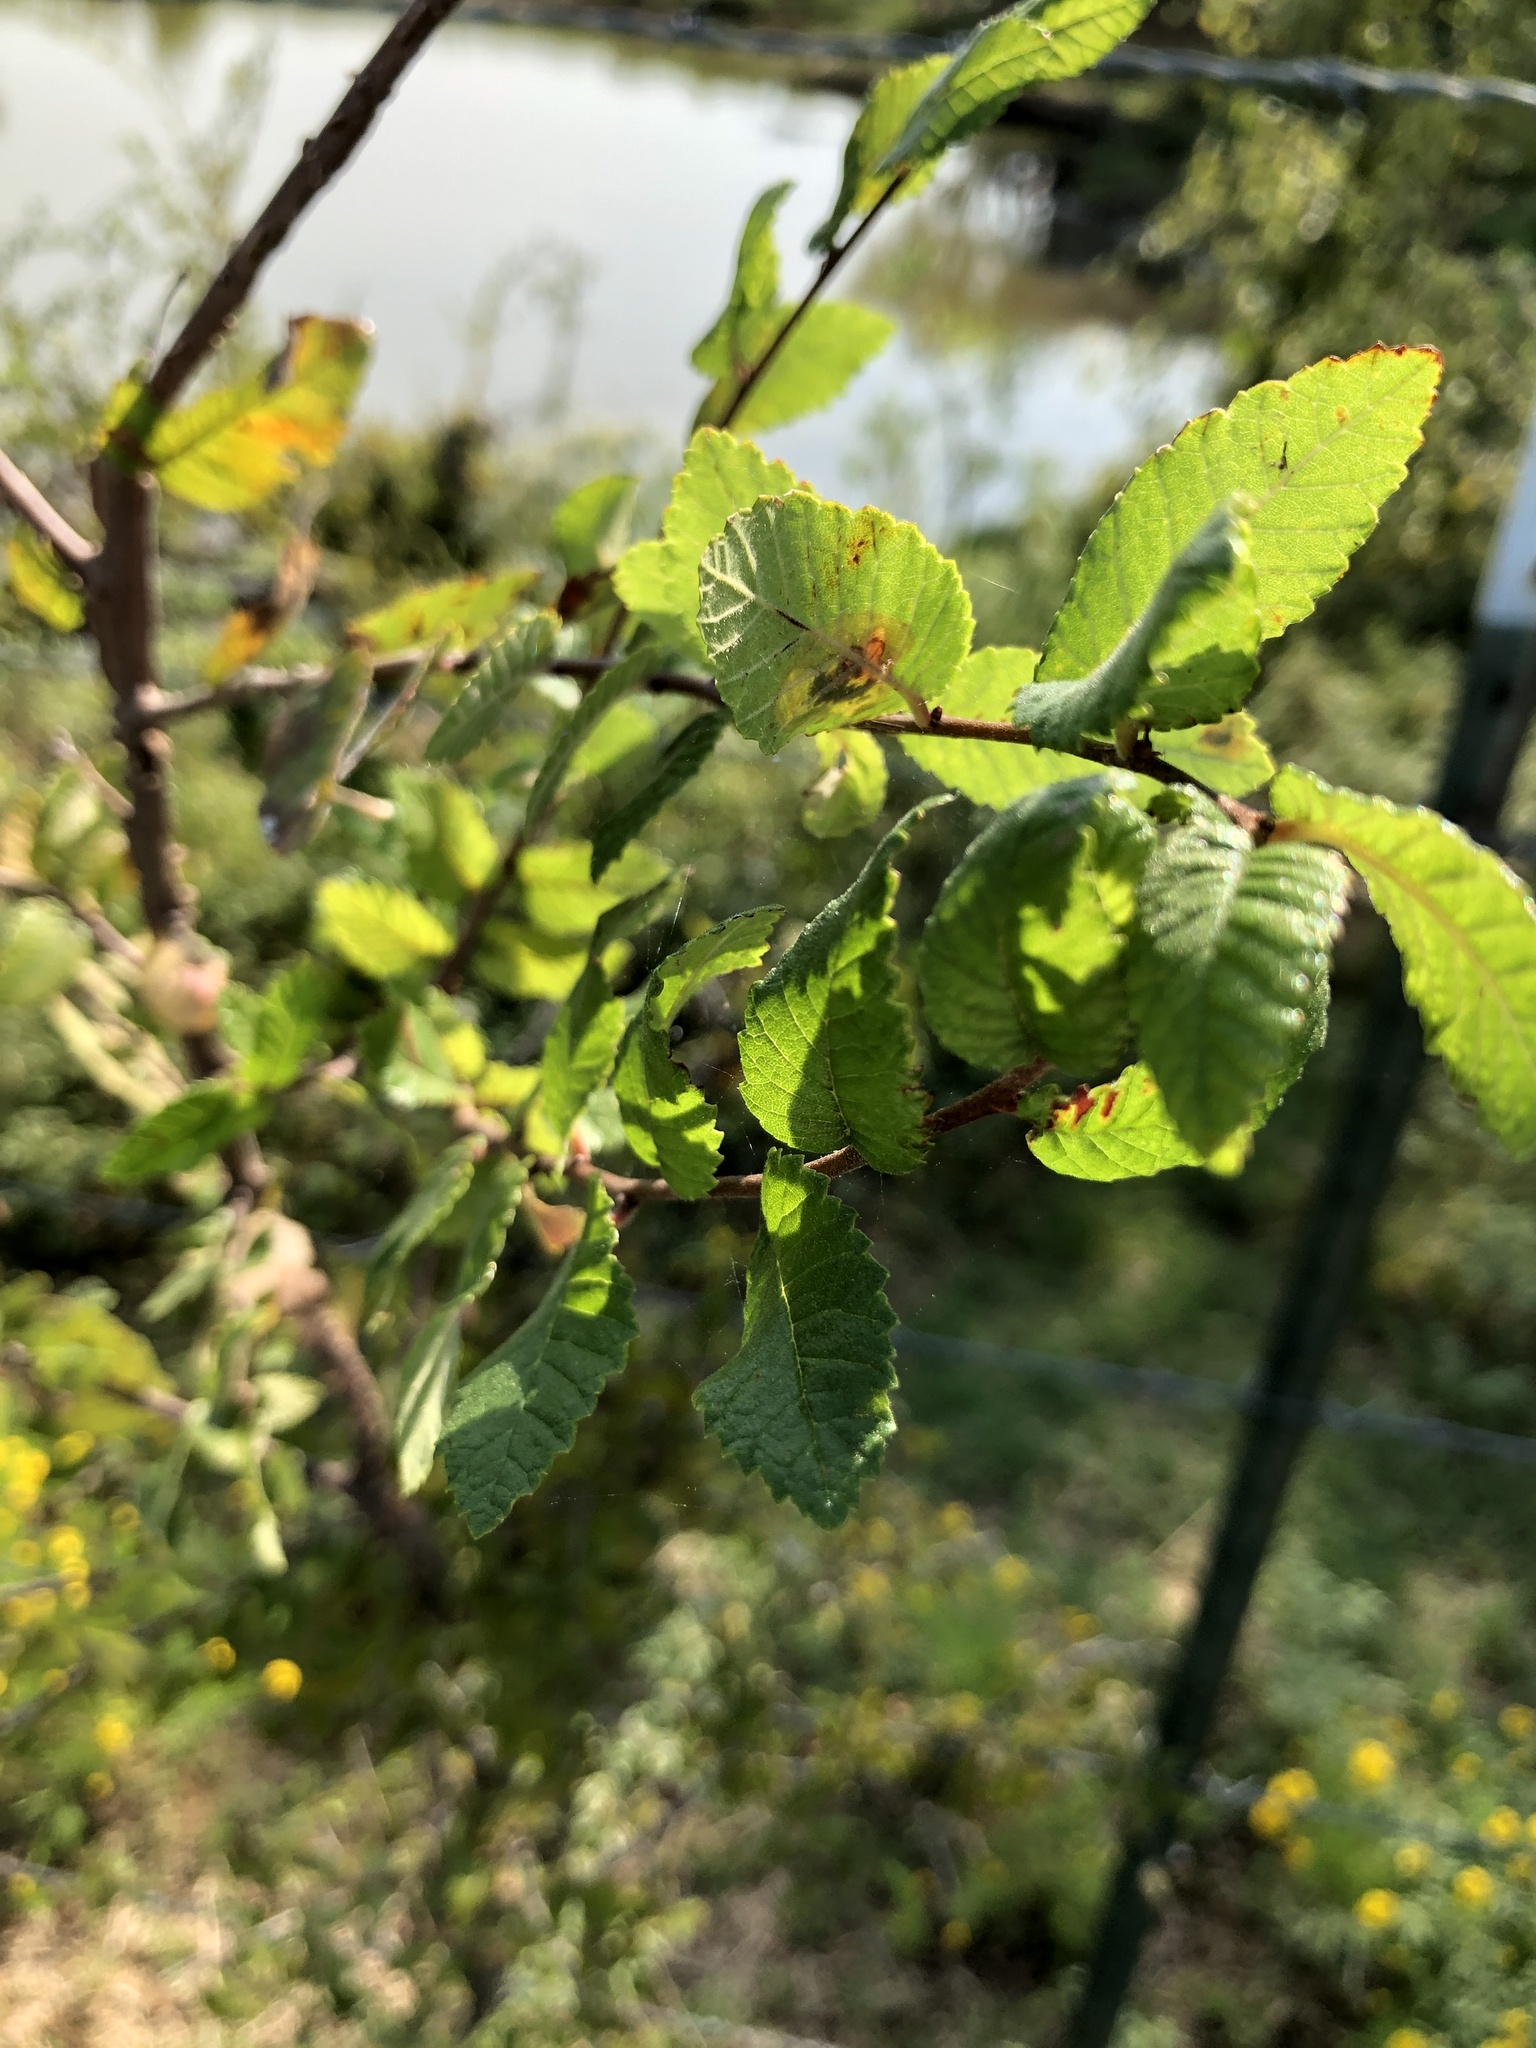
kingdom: Plantae
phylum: Tracheophyta
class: Magnoliopsida
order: Rosales
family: Ulmaceae
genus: Ulmus
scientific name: Ulmus crassifolia
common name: Basket elm
